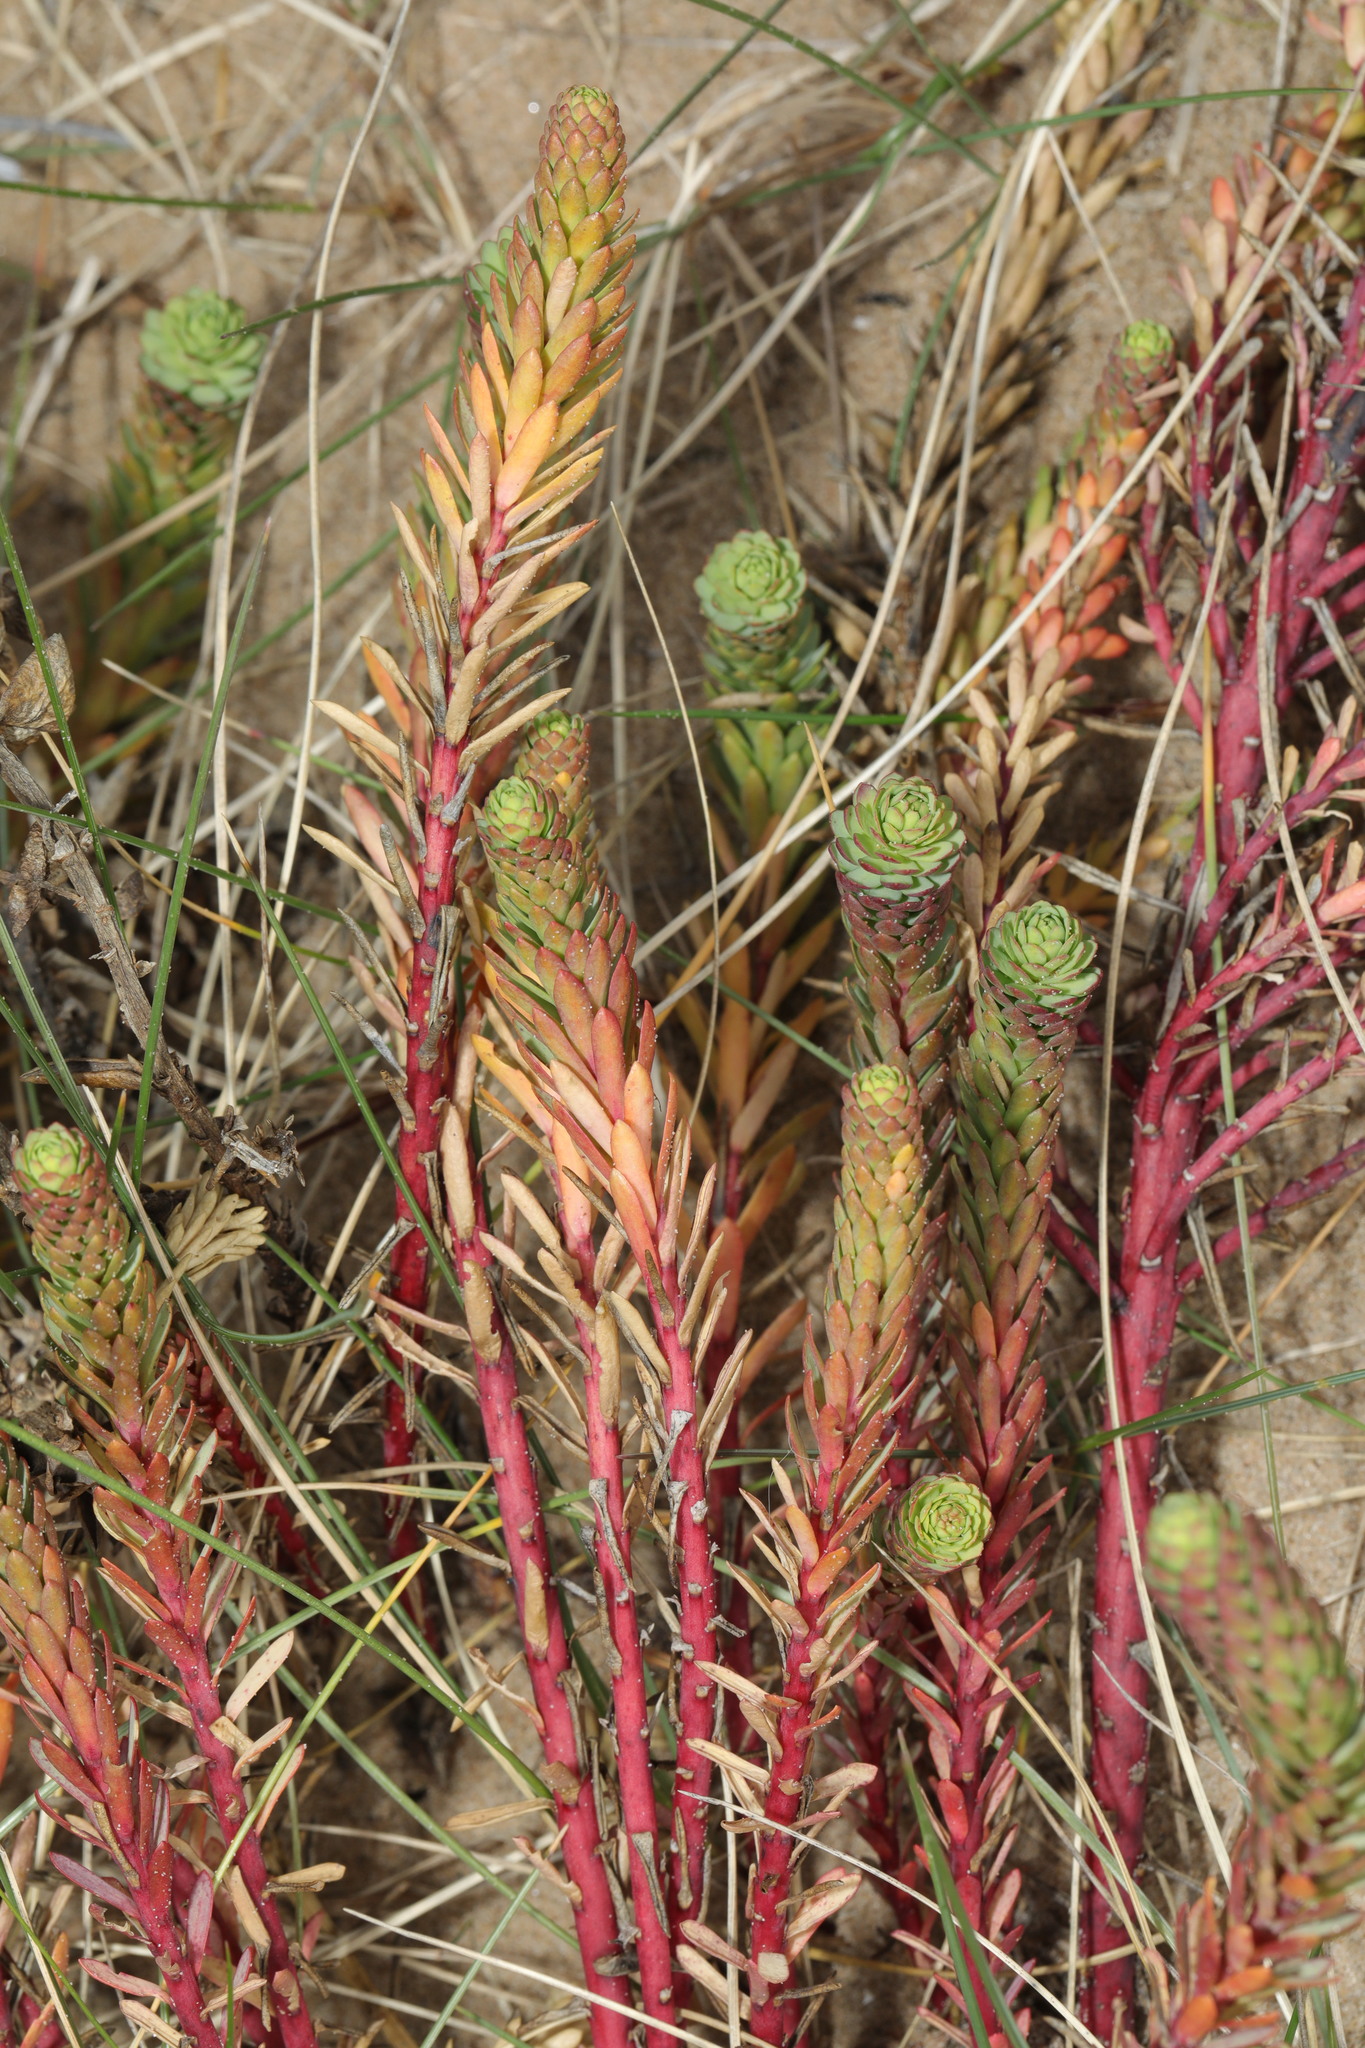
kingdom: Plantae
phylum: Tracheophyta
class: Magnoliopsida
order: Malpighiales
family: Euphorbiaceae
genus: Euphorbia
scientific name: Euphorbia paralias
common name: Sea spurge
